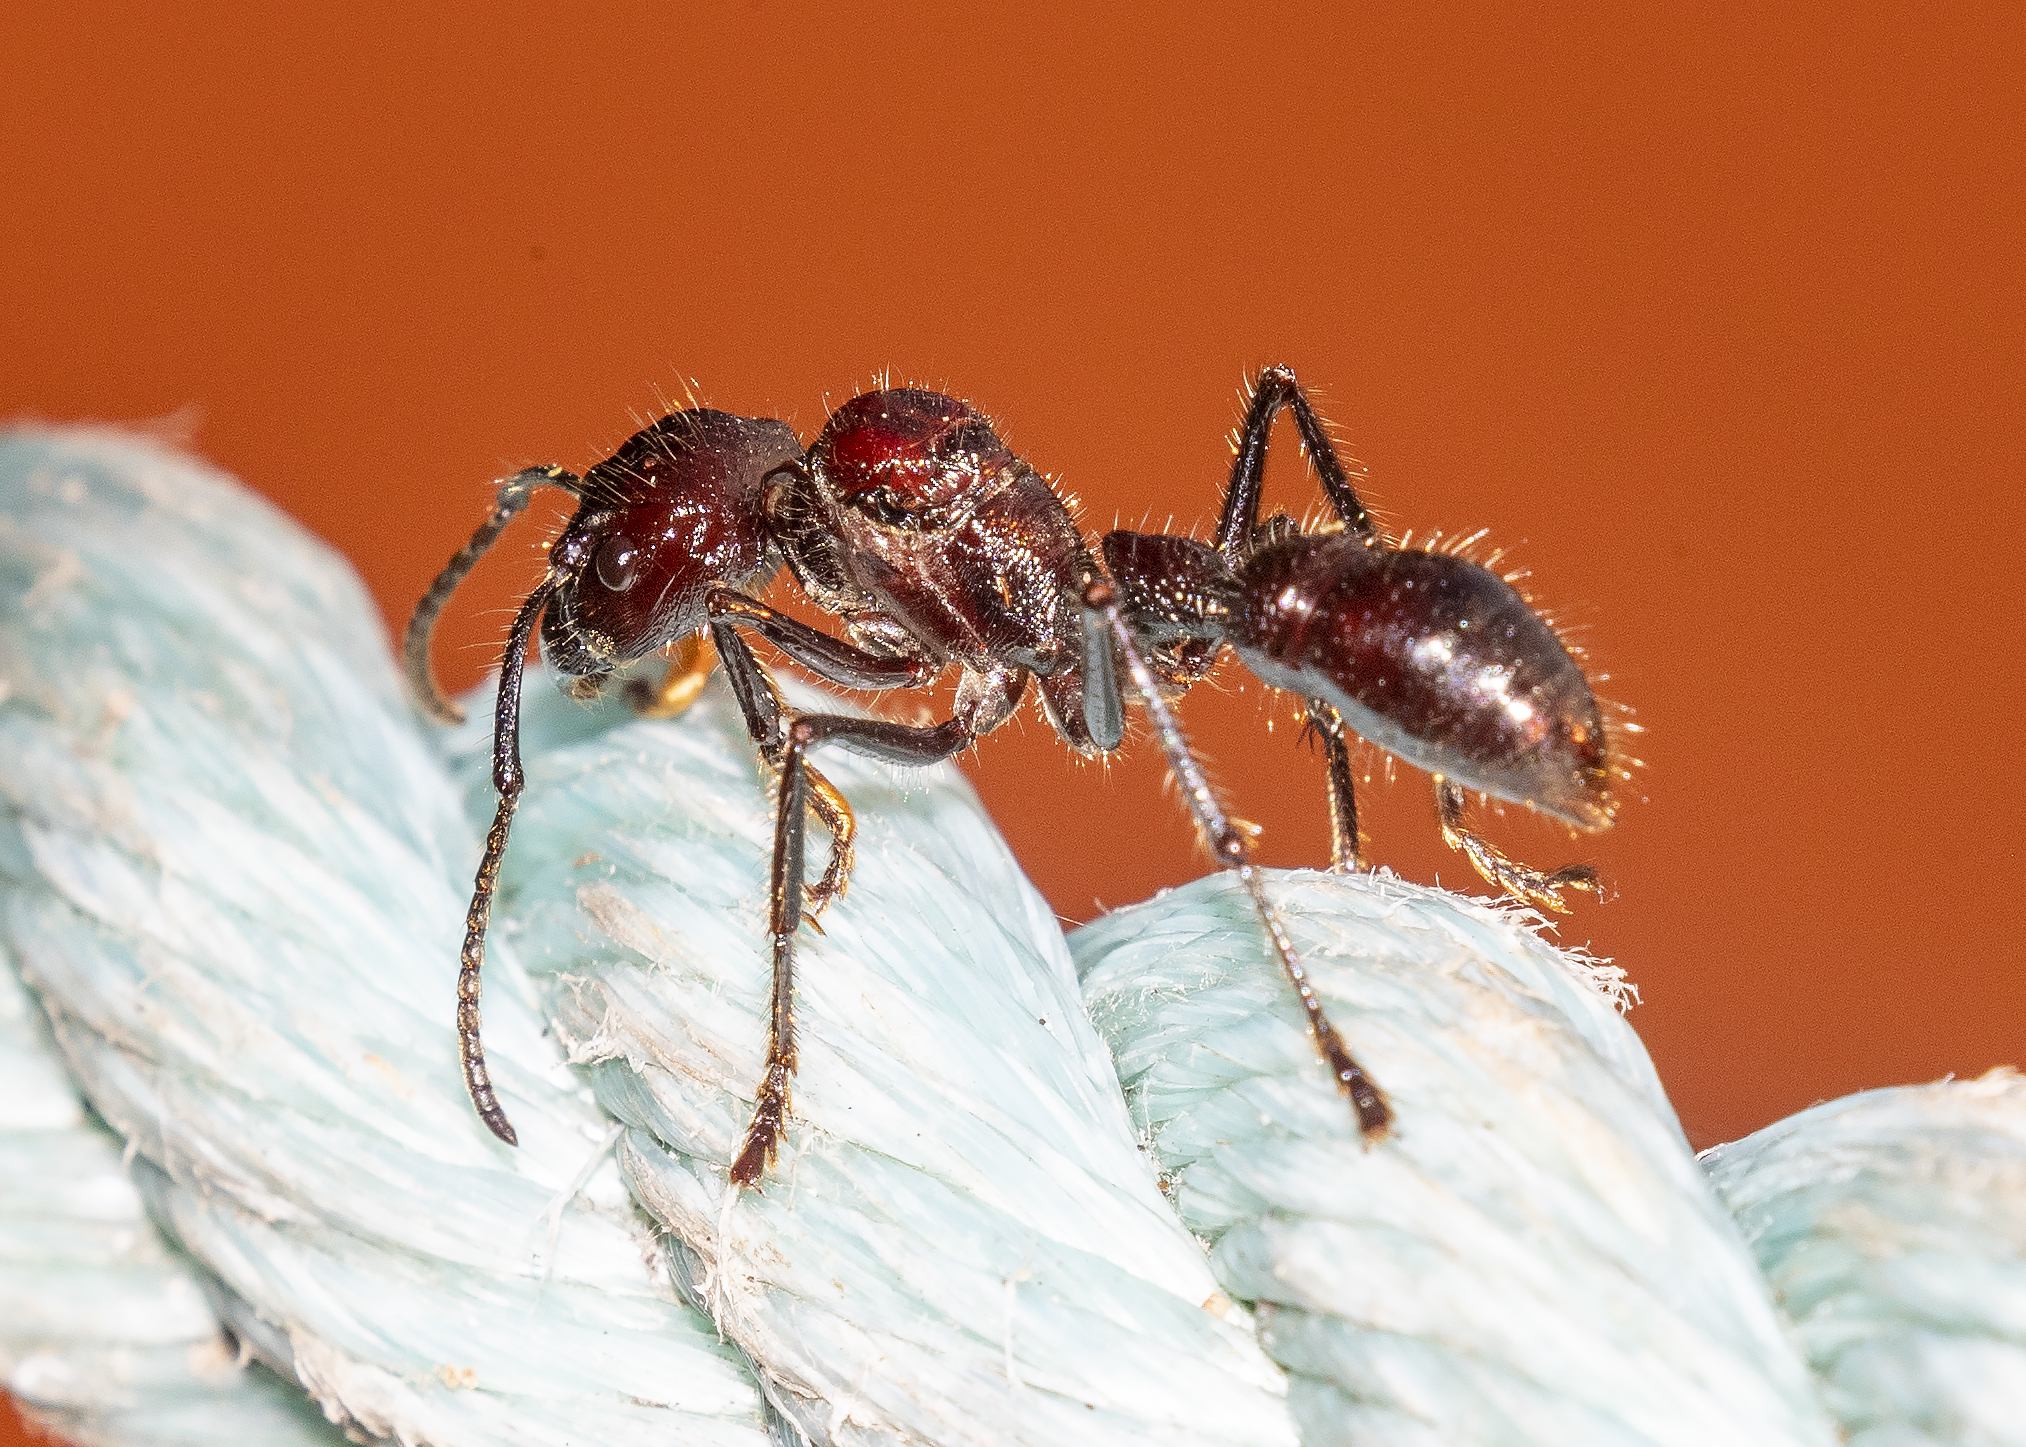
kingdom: Animalia
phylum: Arthropoda
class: Insecta
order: Hymenoptera
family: Formicidae
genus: Paraponera
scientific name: Paraponera clavata
